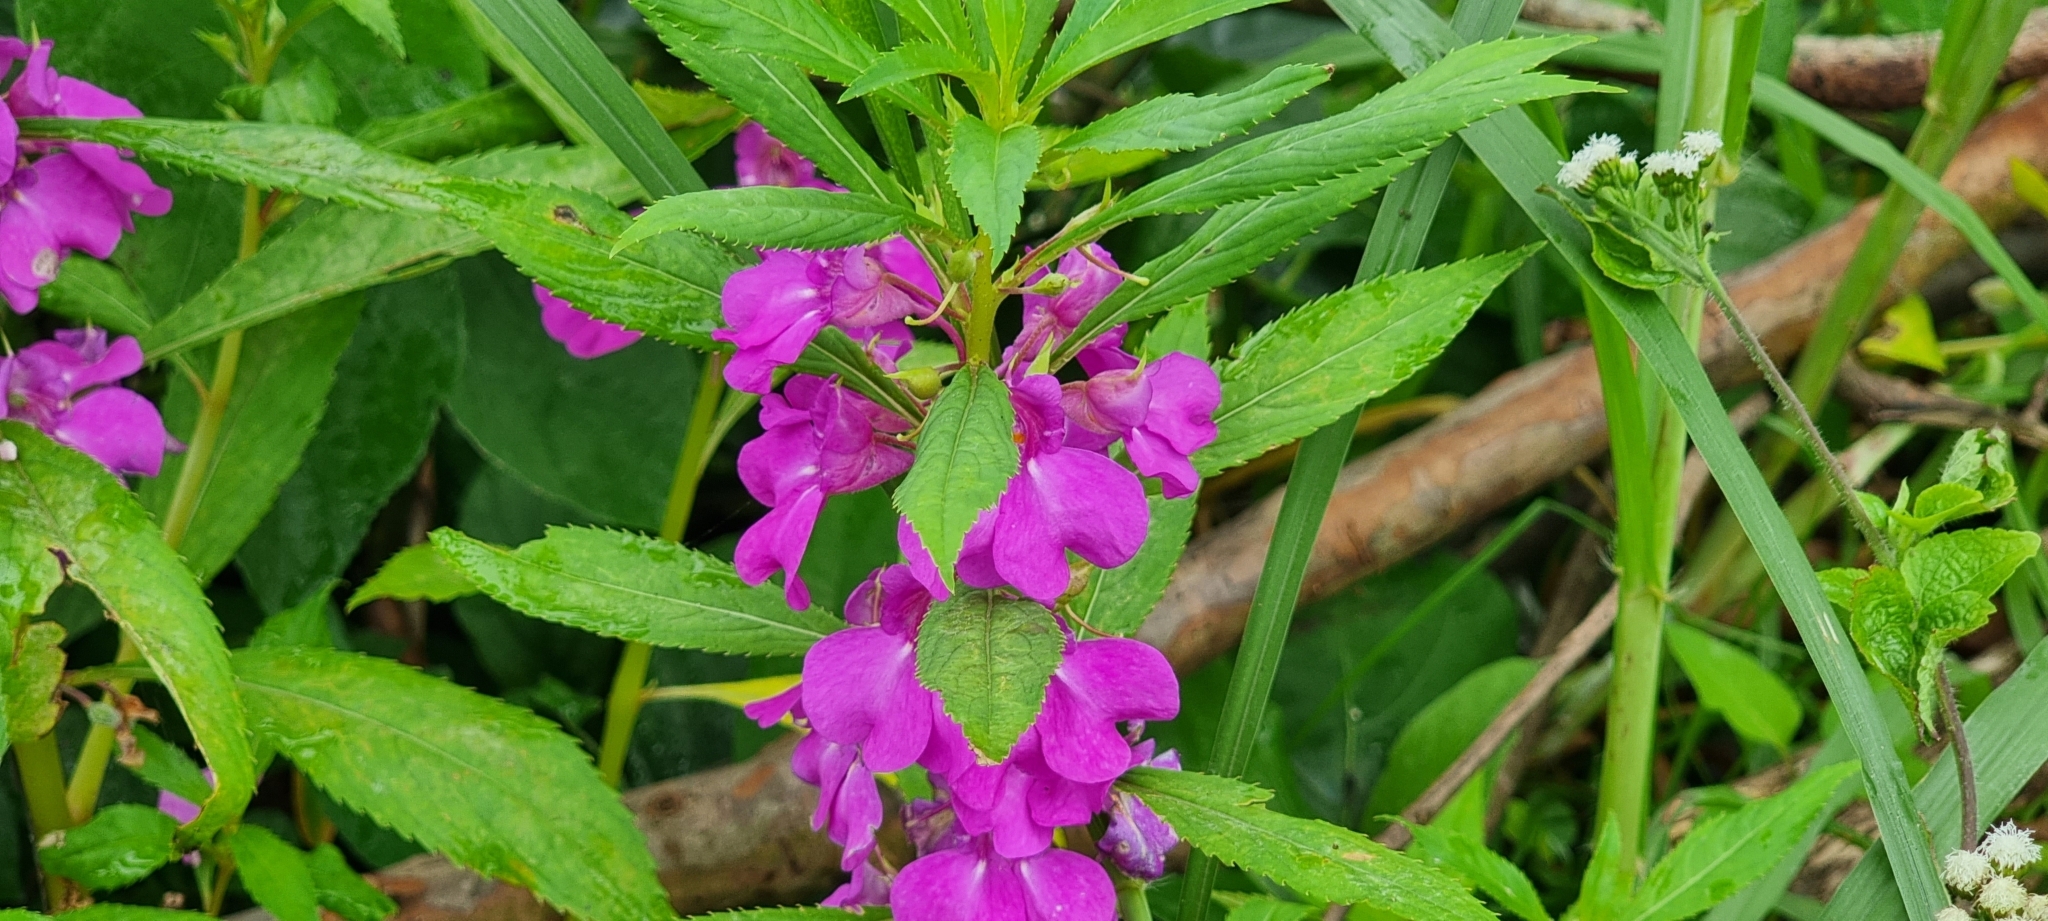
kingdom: Plantae
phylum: Tracheophyta
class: Magnoliopsida
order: Ericales
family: Balsaminaceae
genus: Impatiens
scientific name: Impatiens balsamina
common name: Balsam
